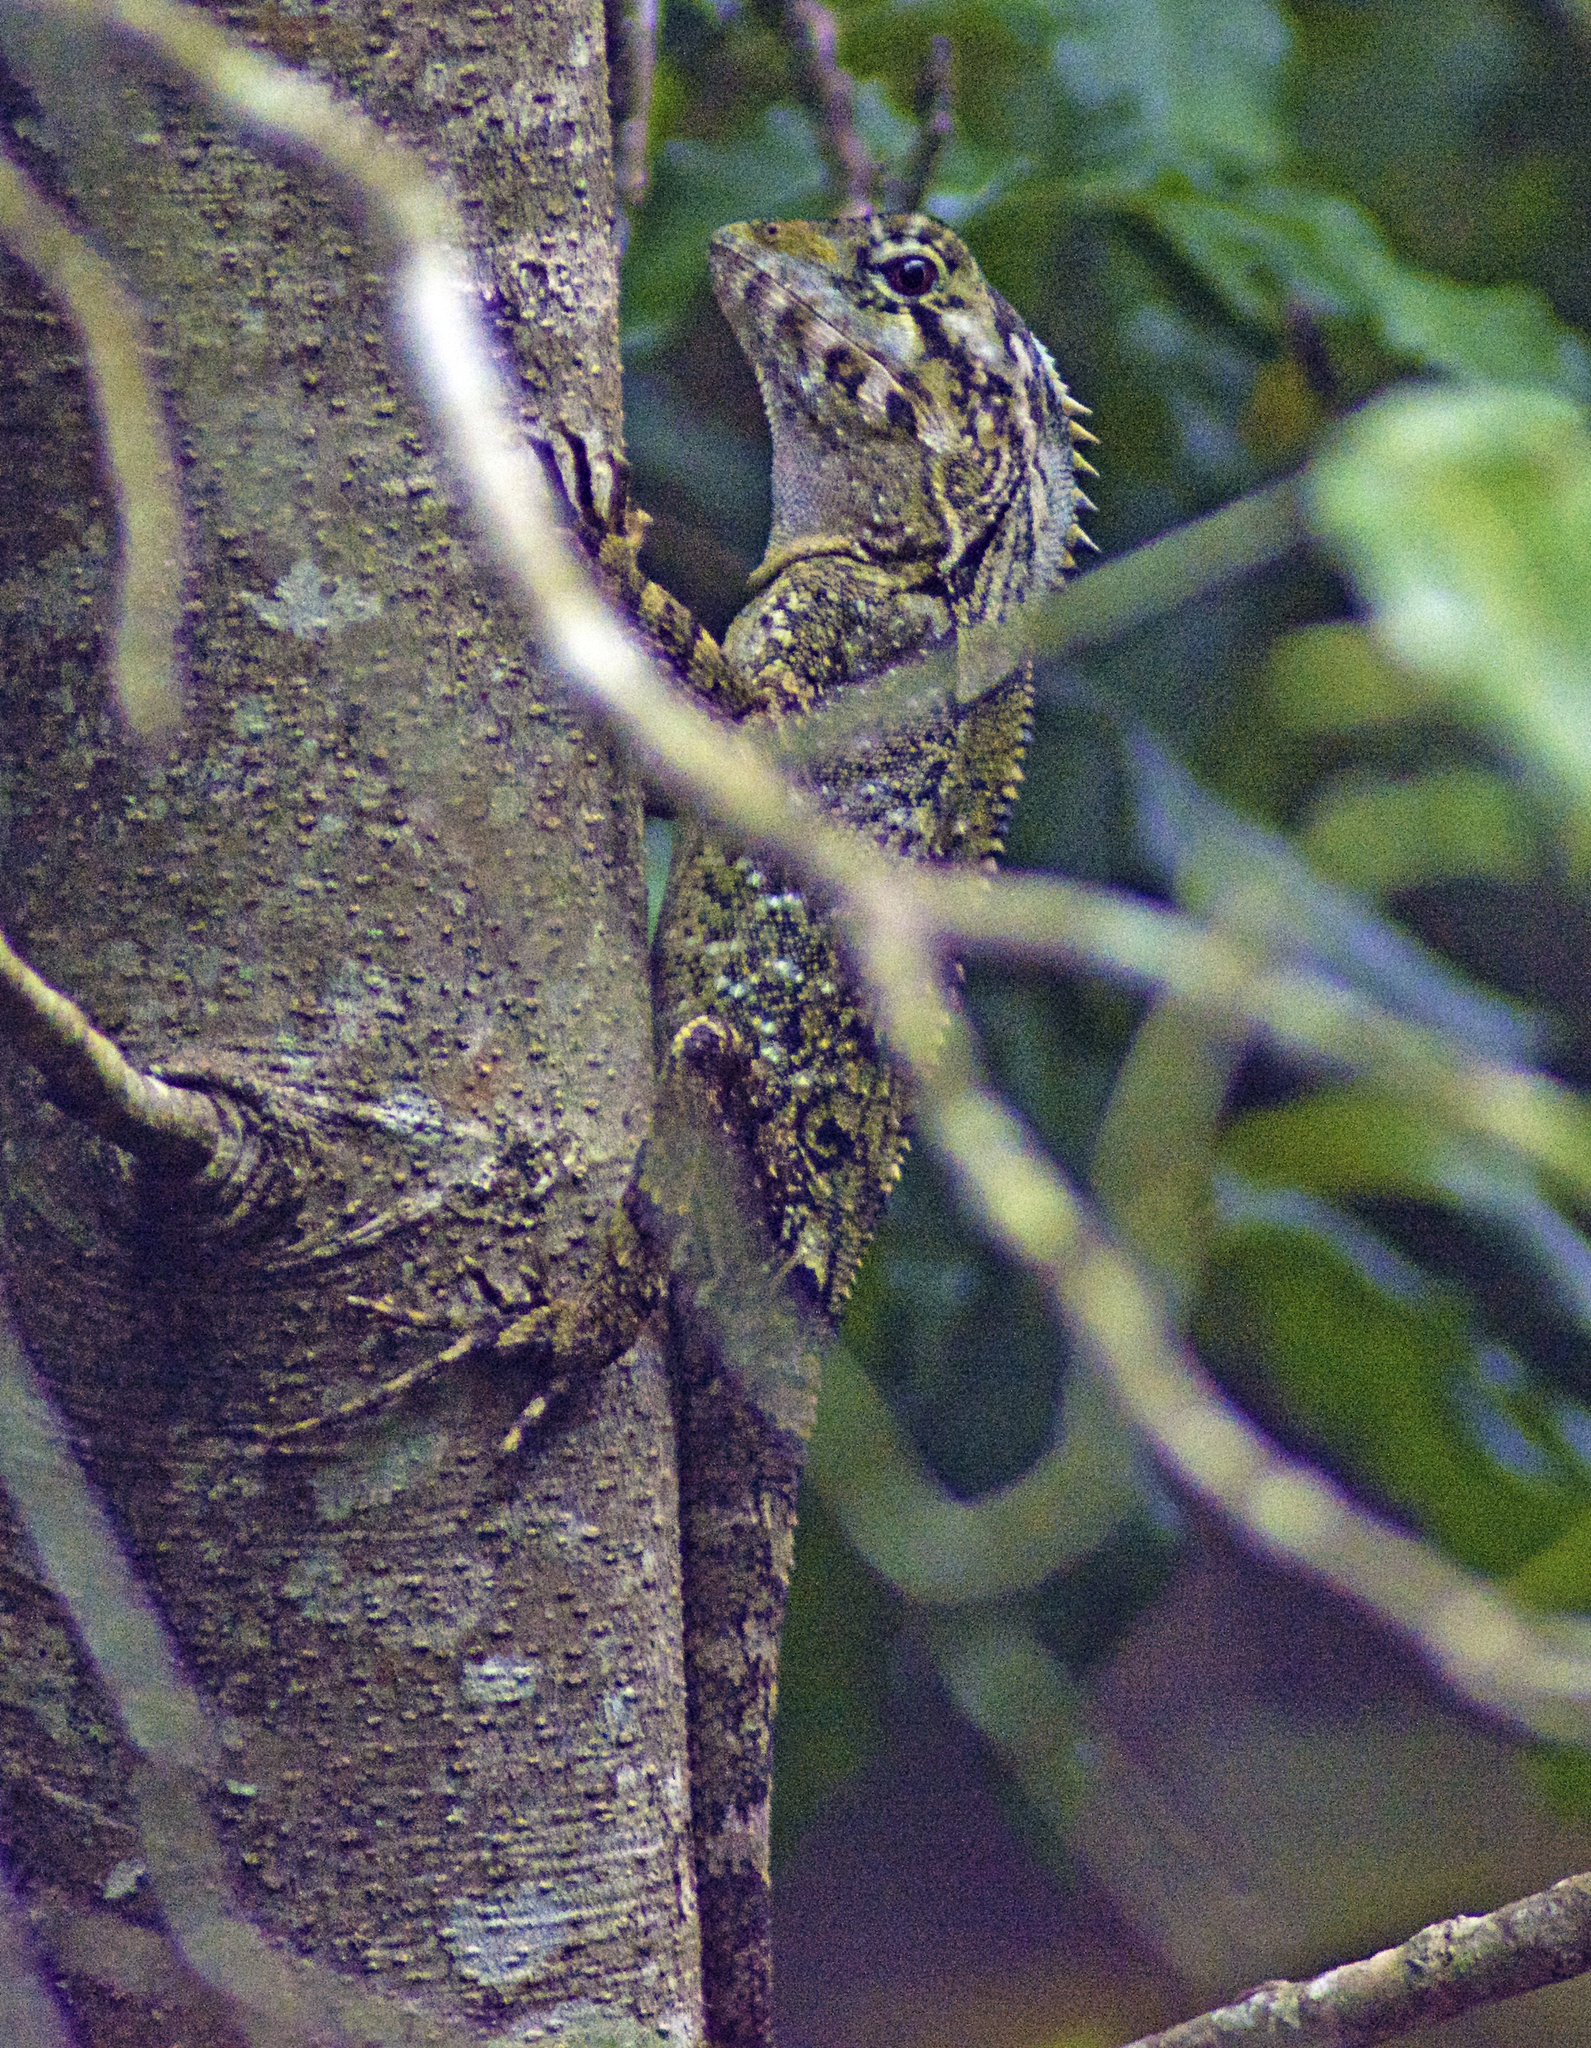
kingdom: Animalia
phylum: Chordata
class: Squamata
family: Agamidae
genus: Lophosaurus
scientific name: Lophosaurus spinipes
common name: Southern angle-headed dragon
